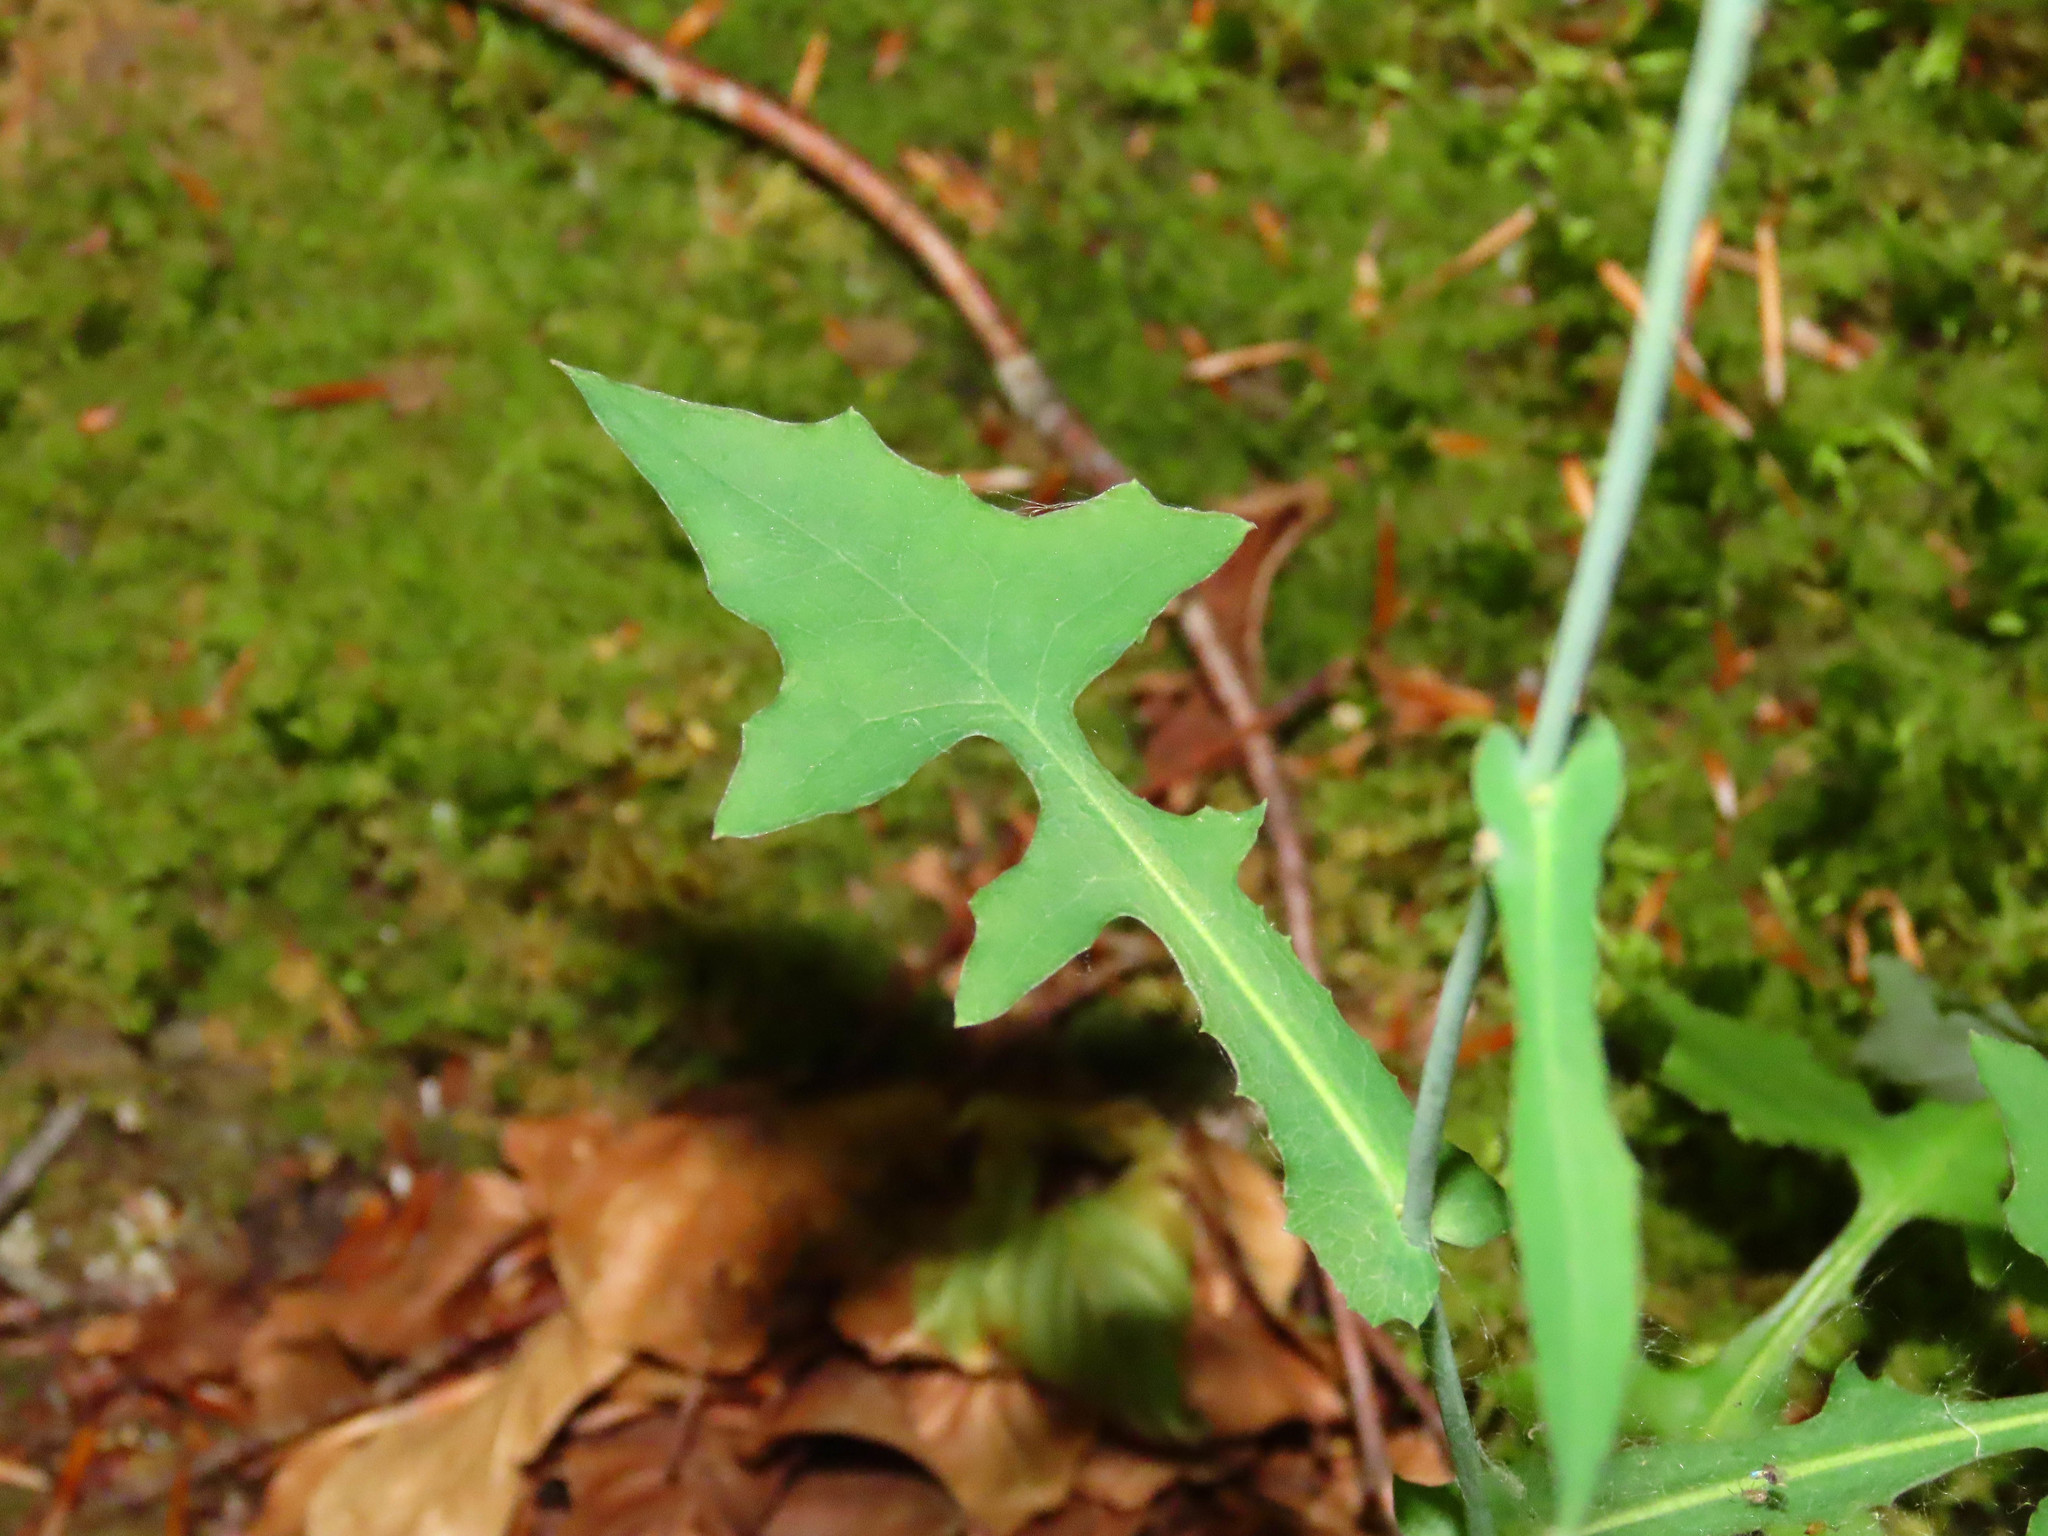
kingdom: Plantae
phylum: Tracheophyta
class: Magnoliopsida
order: Asterales
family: Asteraceae
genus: Mycelis
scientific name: Mycelis muralis
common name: Wall lettuce
